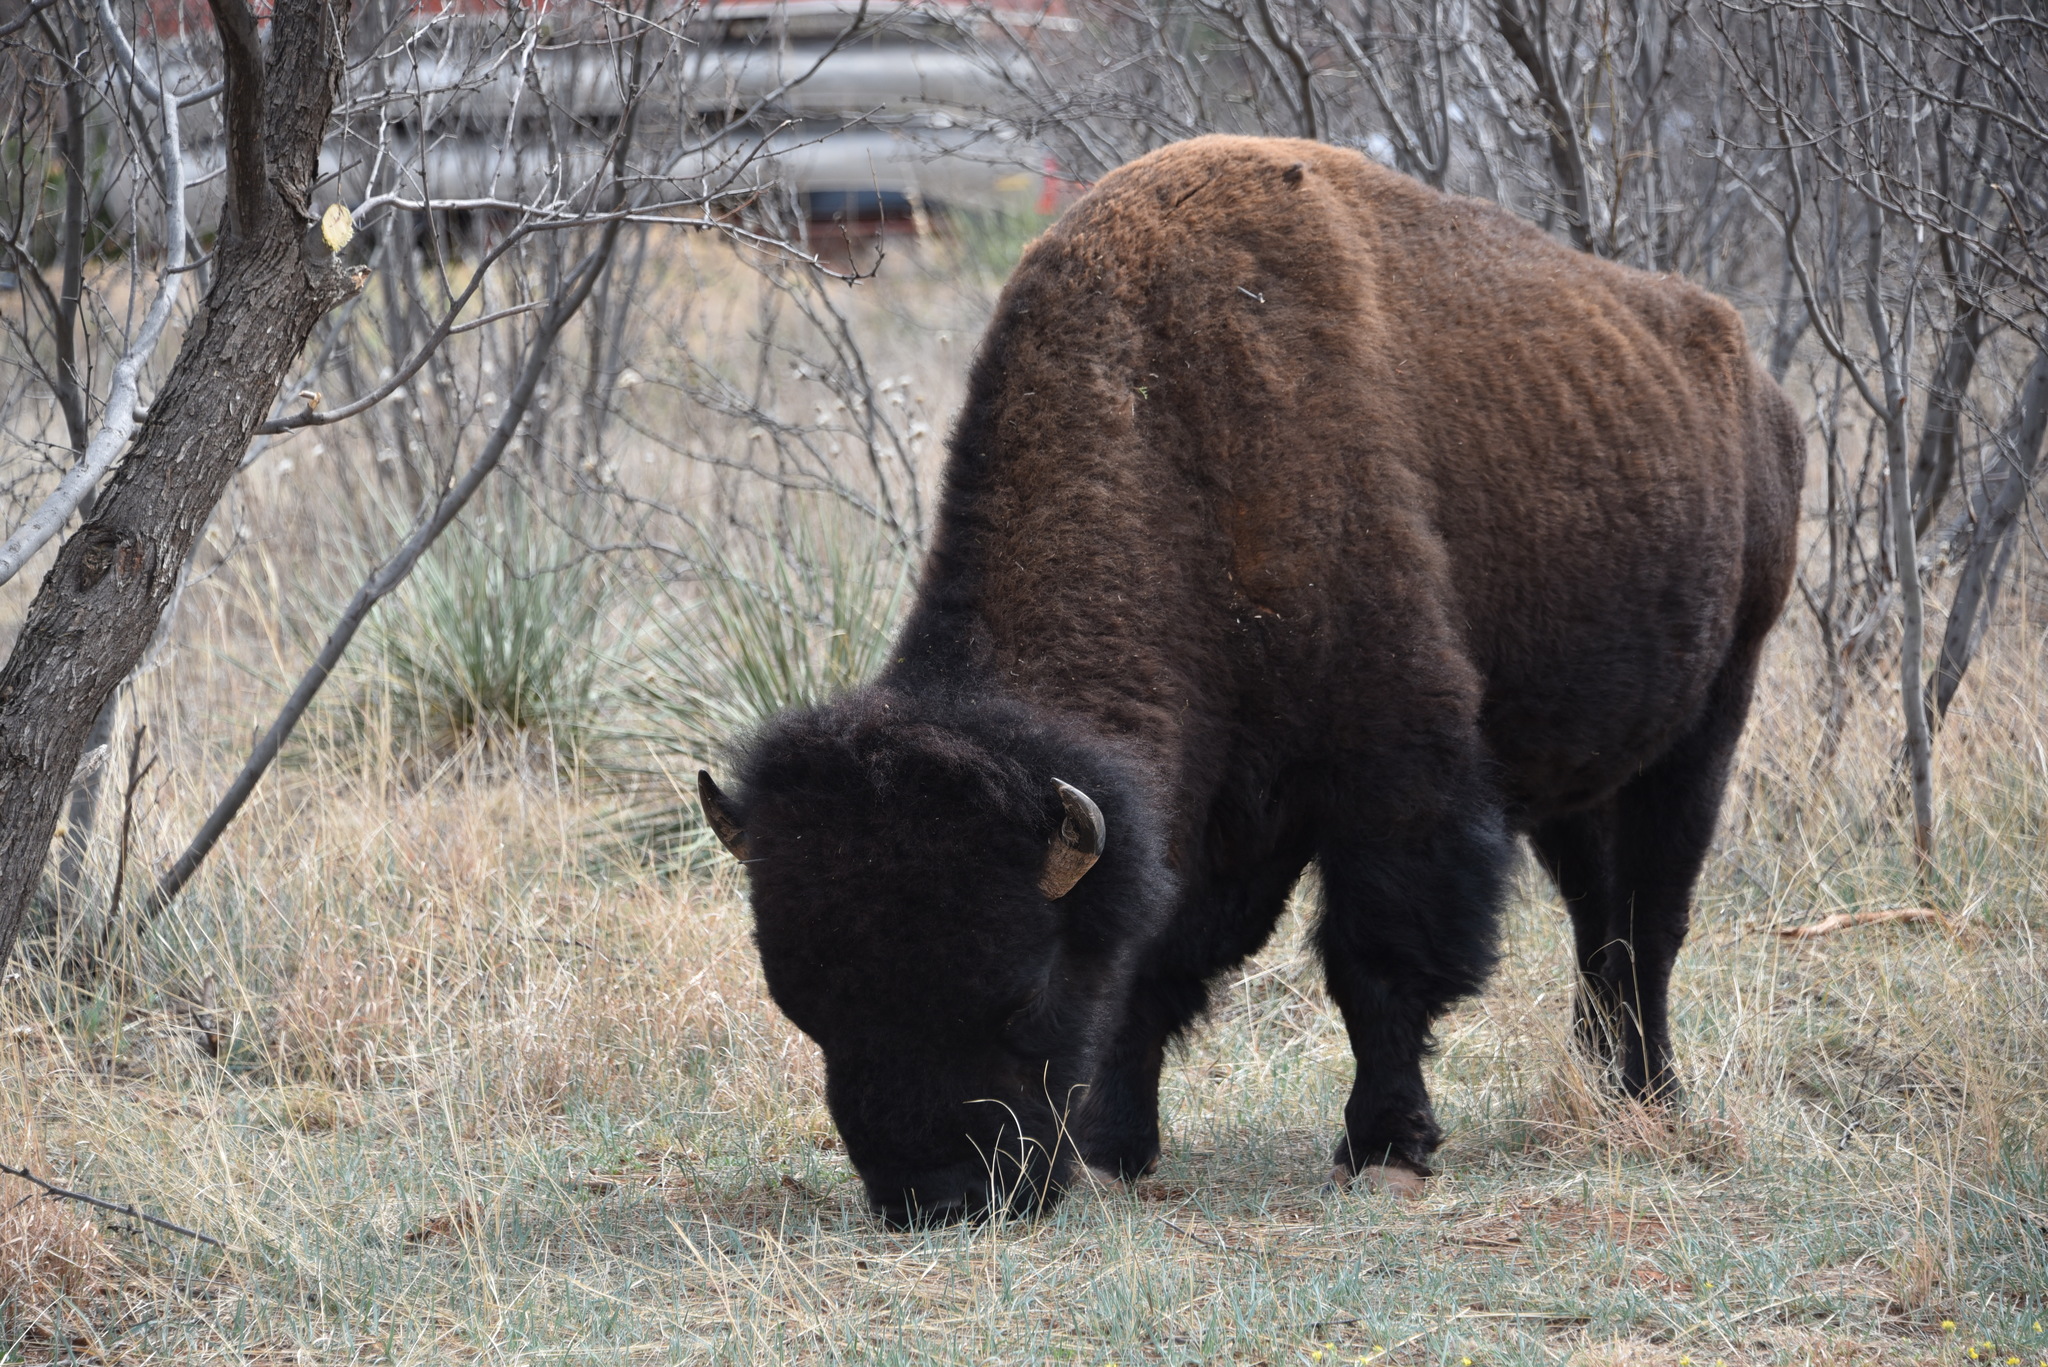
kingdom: Animalia
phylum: Chordata
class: Mammalia
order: Artiodactyla
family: Bovidae
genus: Bison
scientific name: Bison bison
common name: American bison
